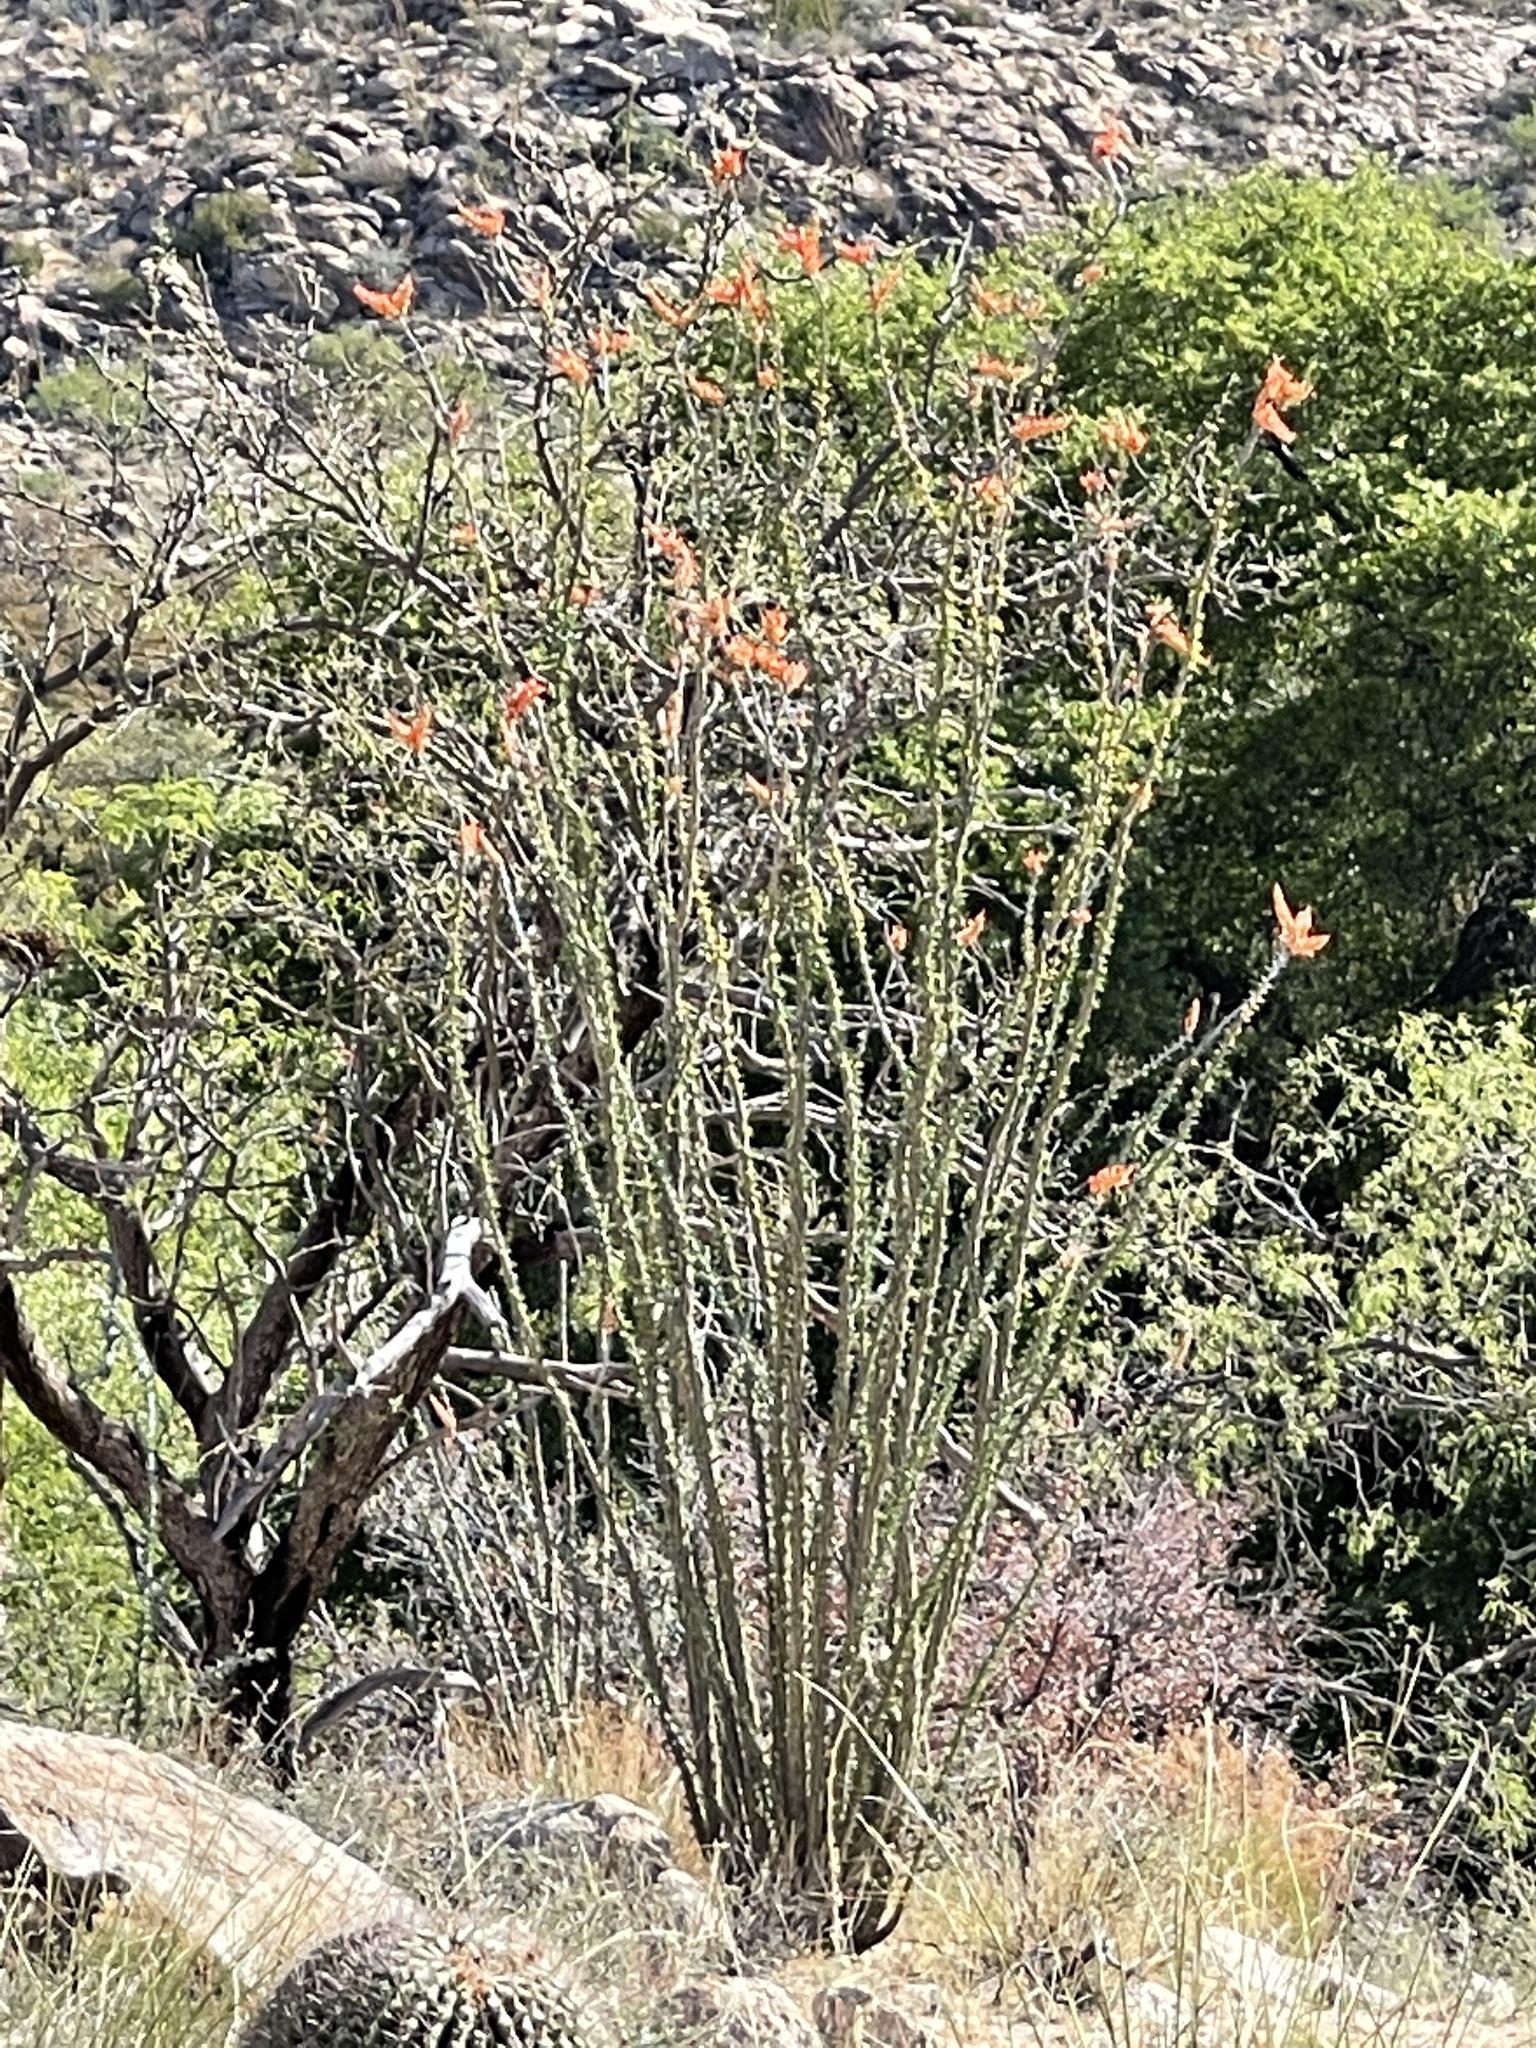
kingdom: Plantae
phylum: Tracheophyta
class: Magnoliopsida
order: Ericales
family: Fouquieriaceae
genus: Fouquieria
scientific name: Fouquieria splendens
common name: Vine-cactus
